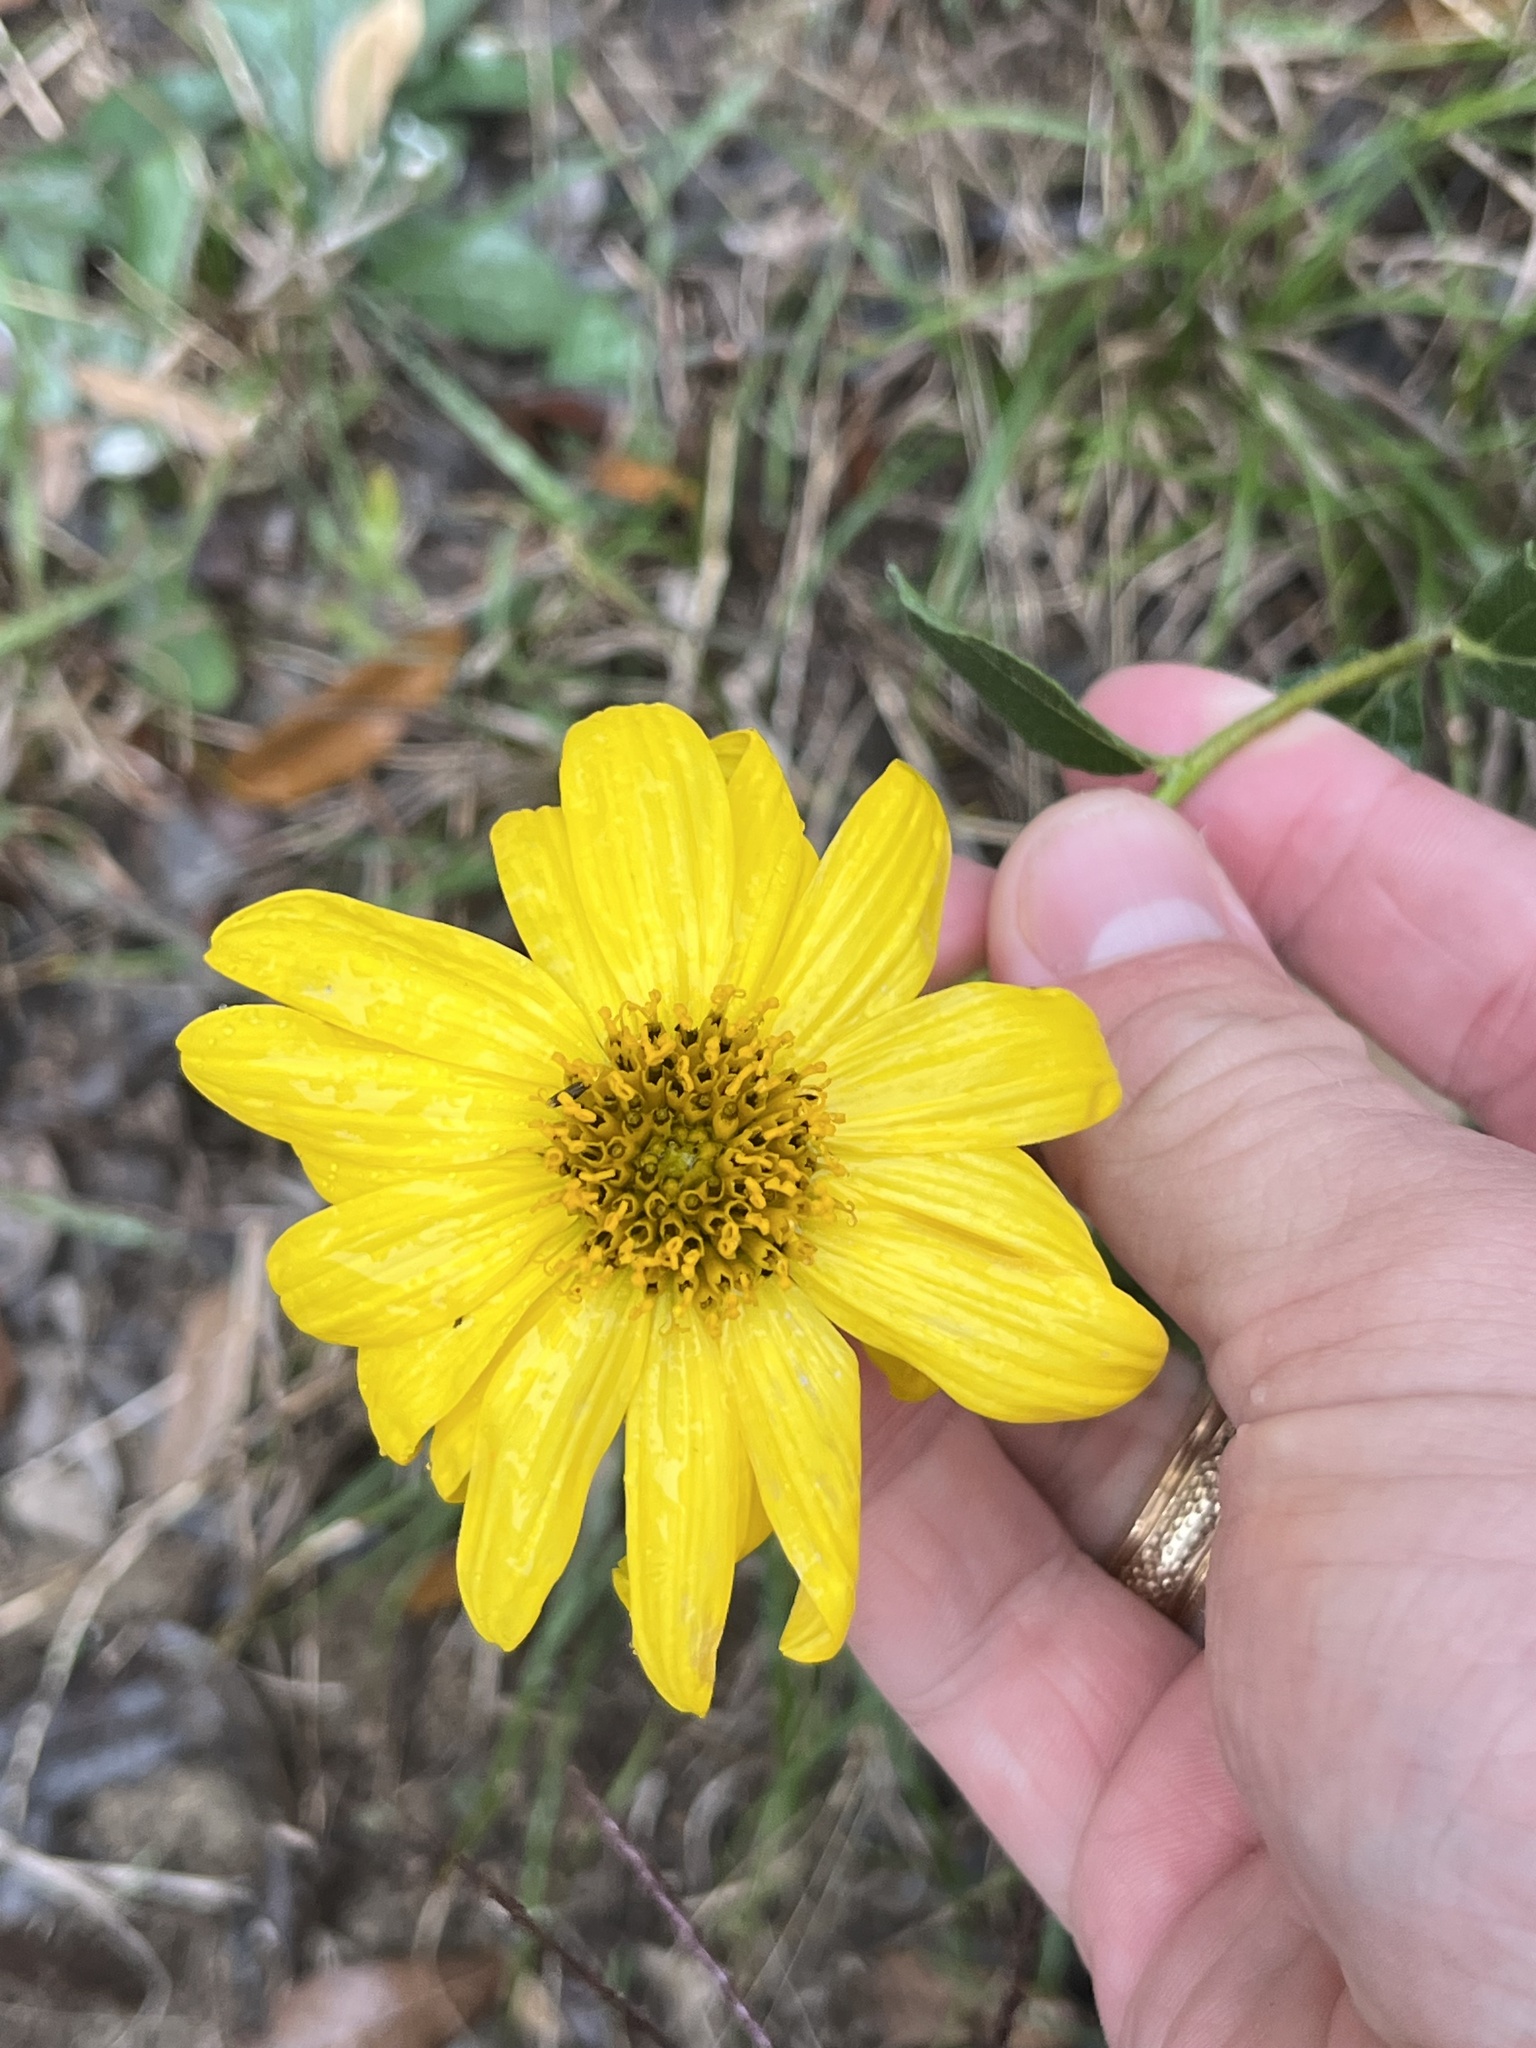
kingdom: Plantae
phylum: Tracheophyta
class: Magnoliopsida
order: Asterales
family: Asteraceae
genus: Verbesina
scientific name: Verbesina lindheimeri
